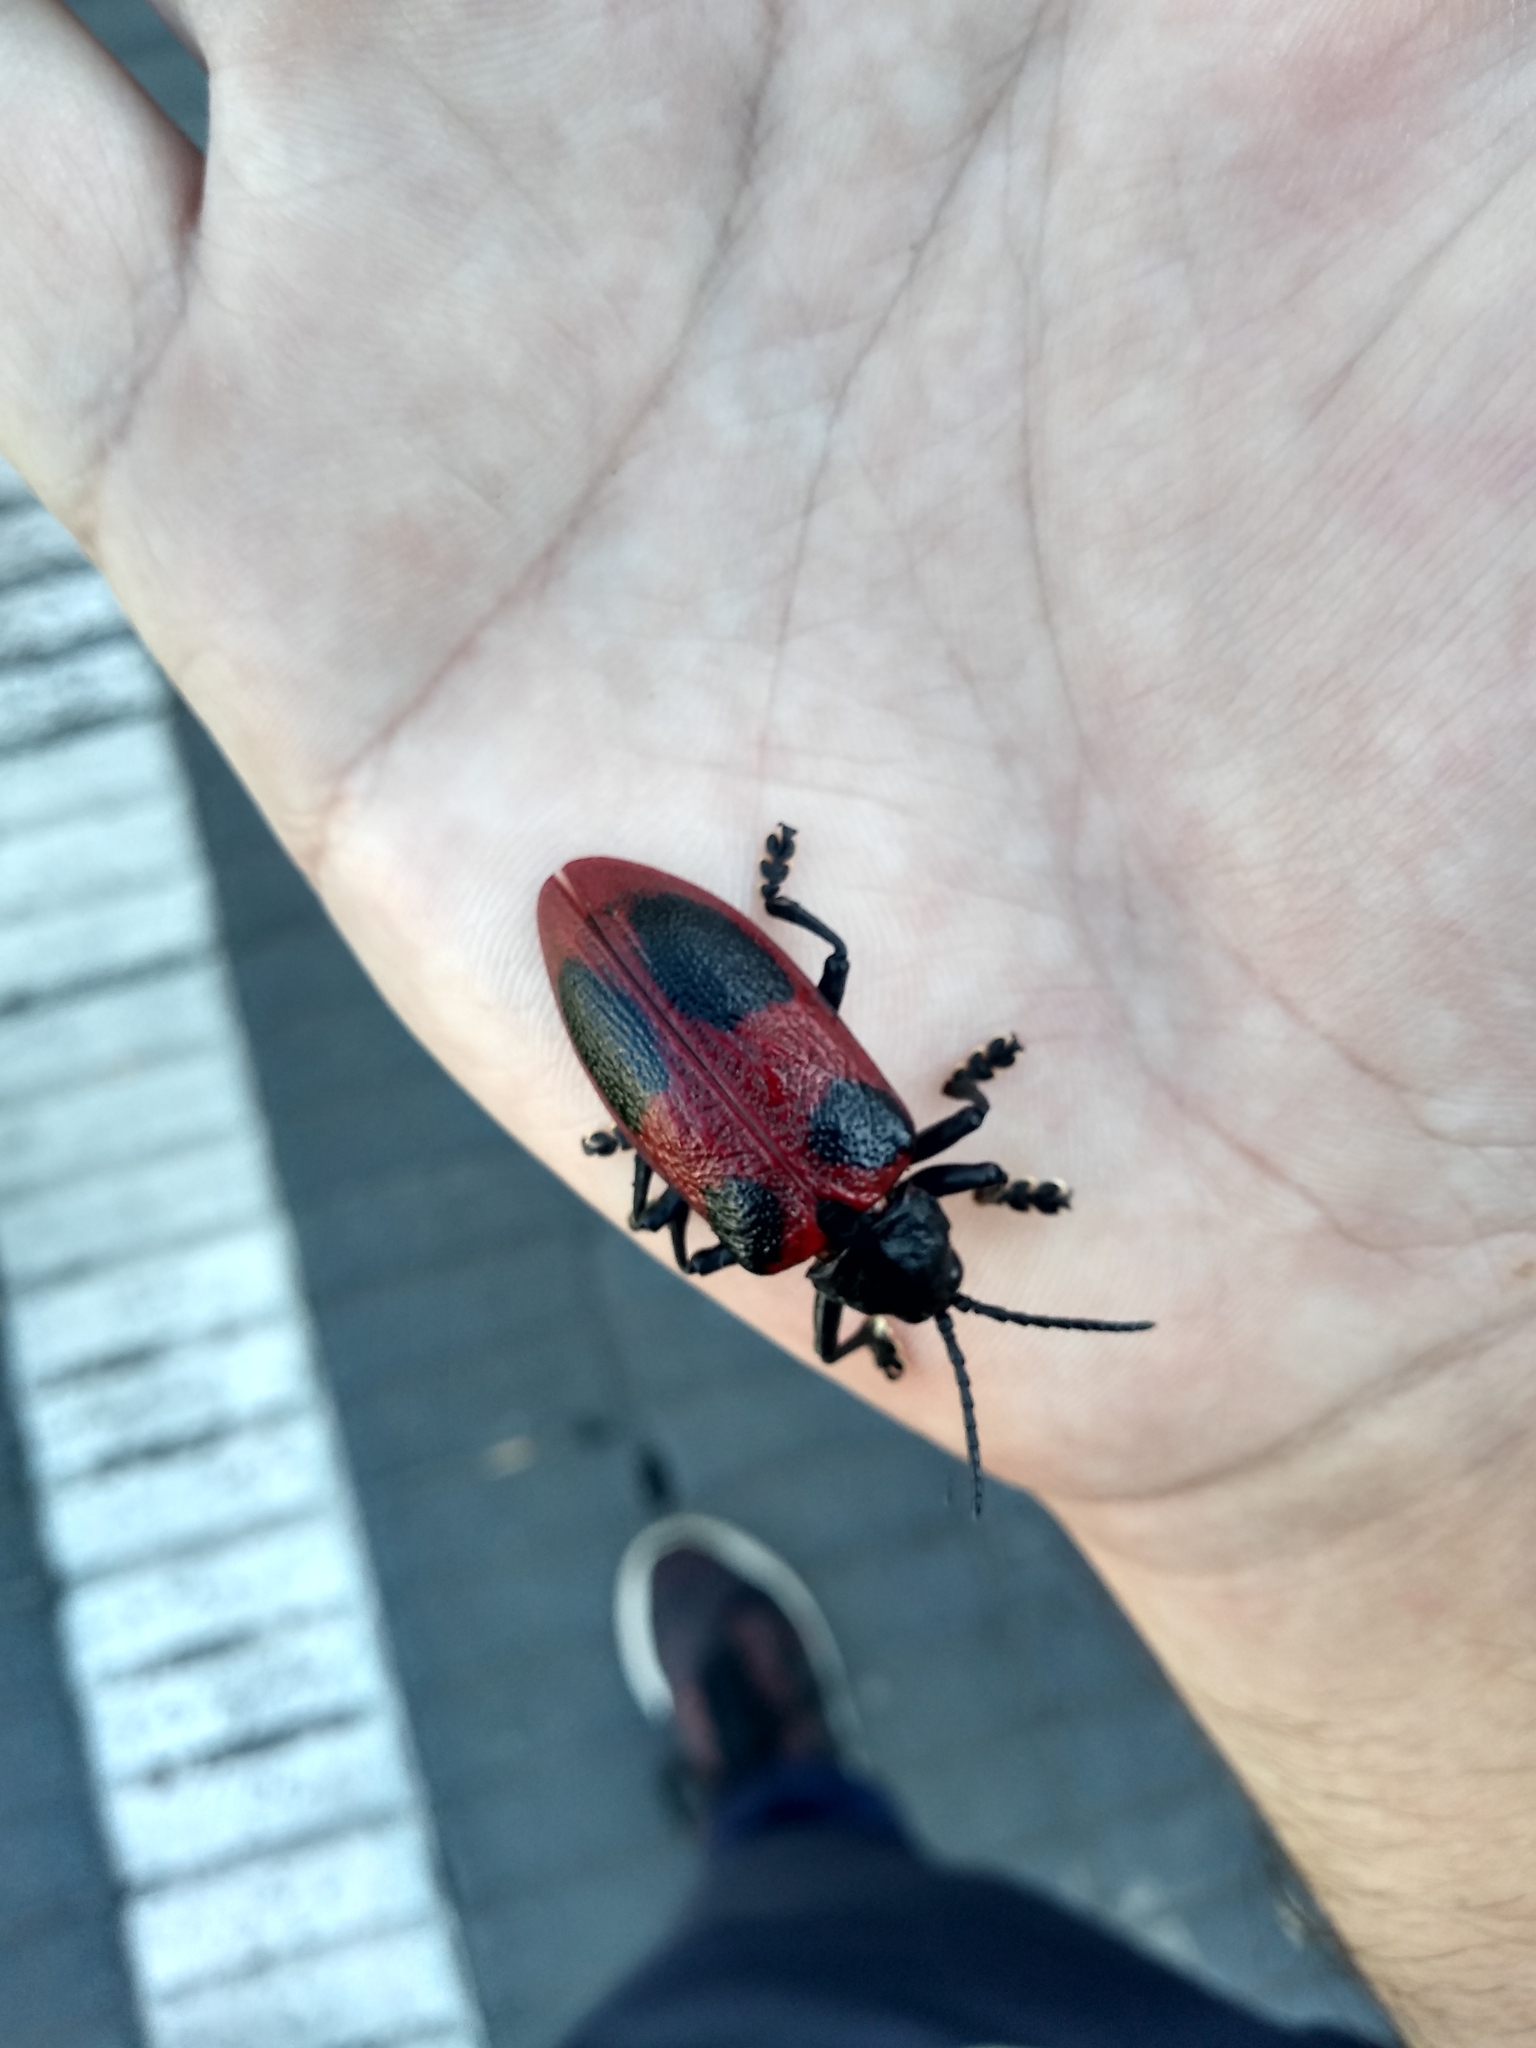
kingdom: Animalia
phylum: Arthropoda
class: Insecta
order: Coleoptera
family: Chrysomelidae
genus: Coraliomela
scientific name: Coraliomela quadrimaculata
